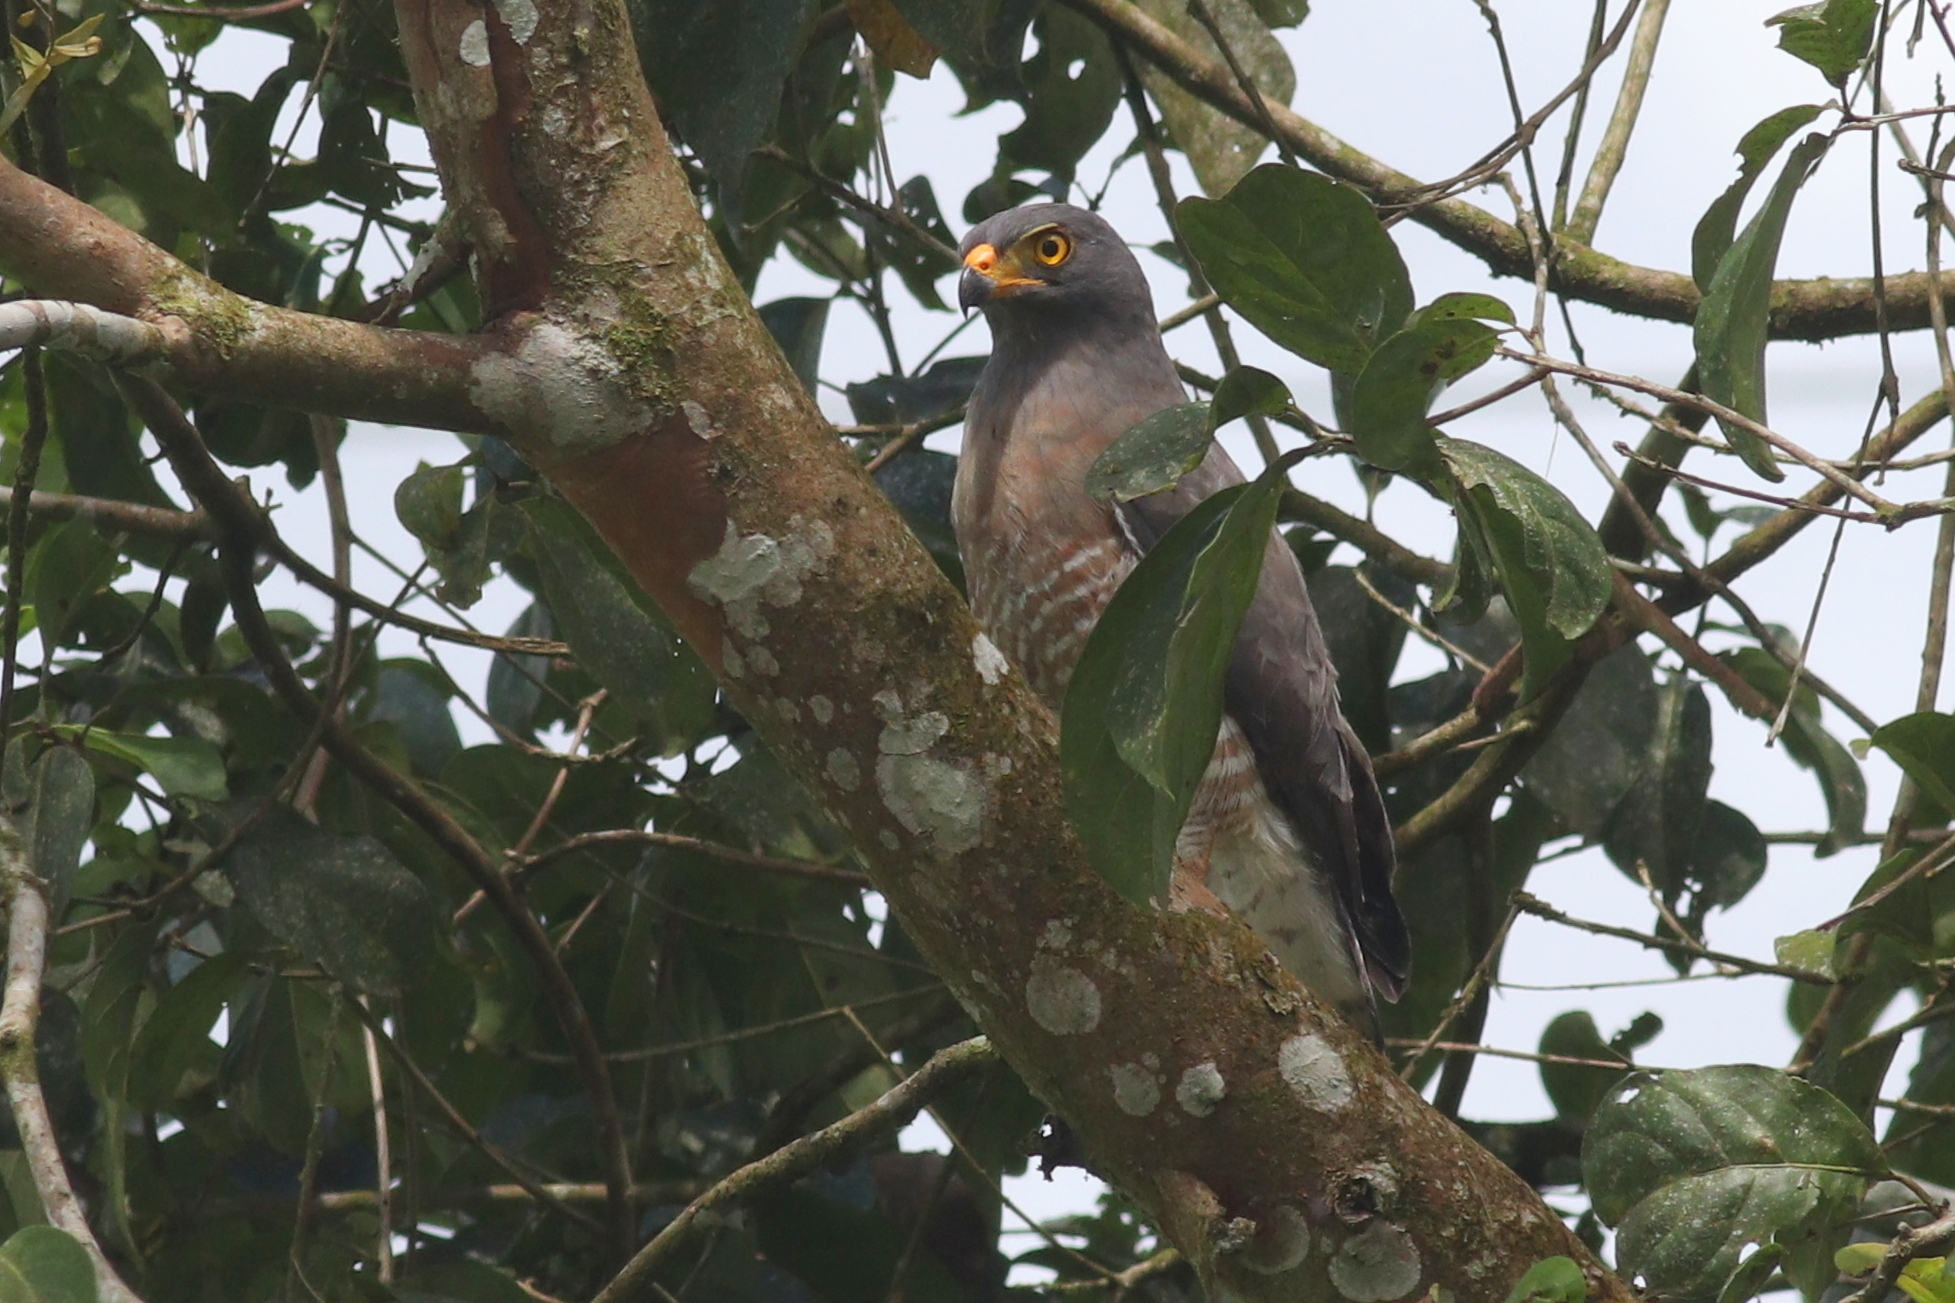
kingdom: Animalia
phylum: Chordata
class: Aves
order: Accipitriformes
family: Accipitridae
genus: Rupornis
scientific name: Rupornis magnirostris
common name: Roadside hawk
